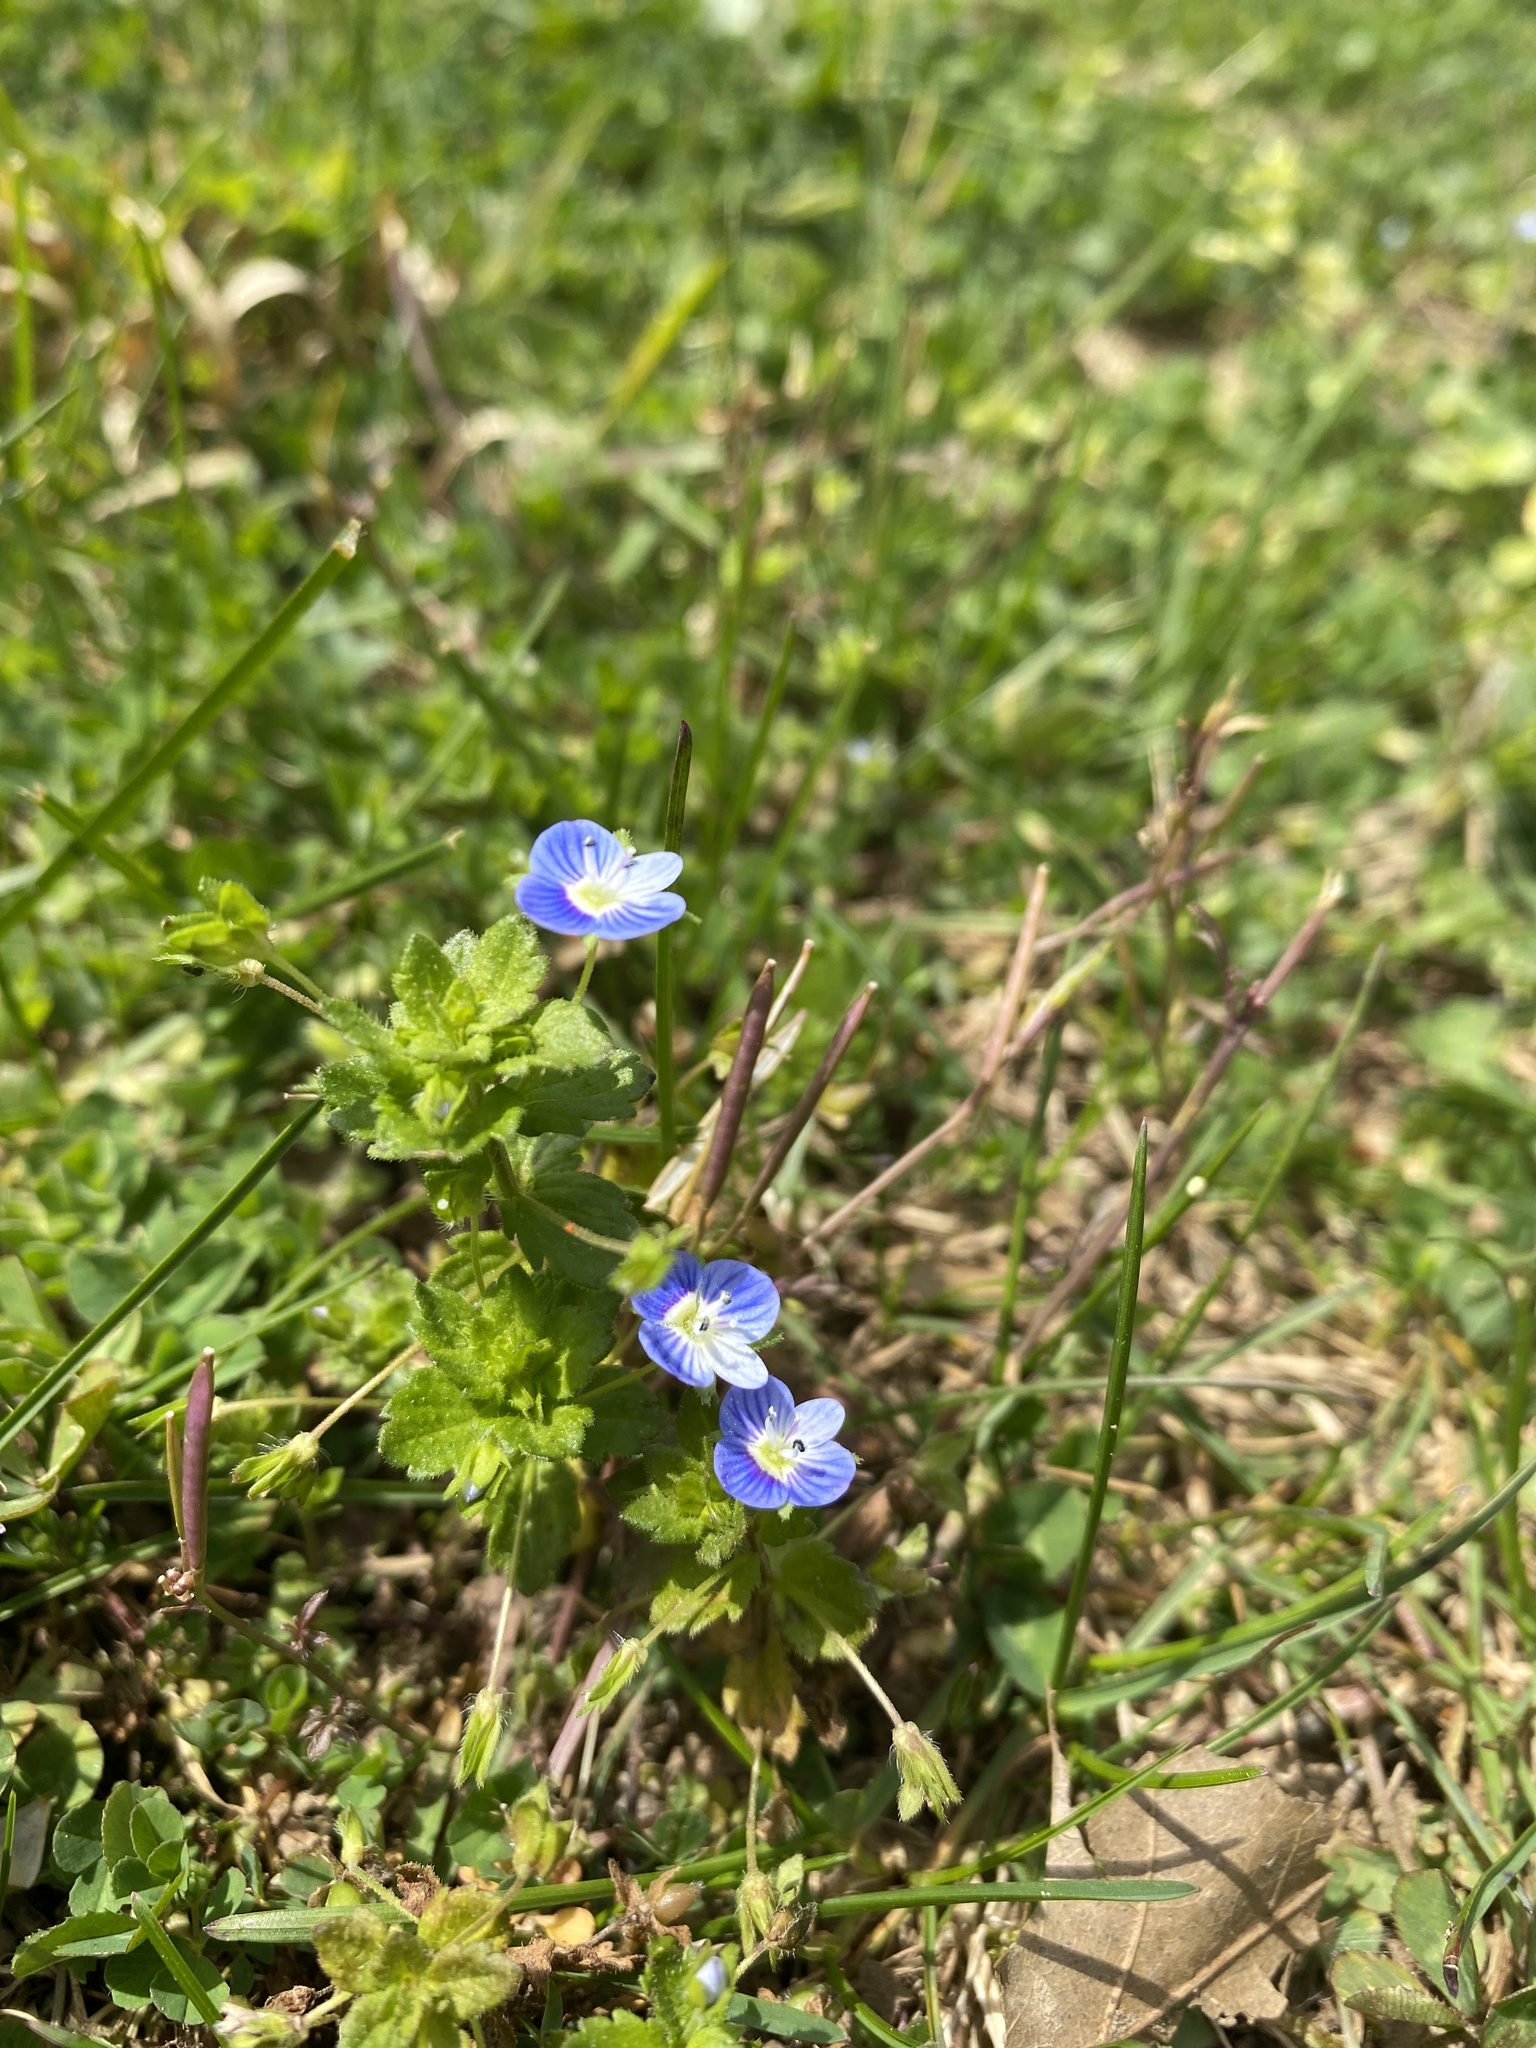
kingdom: Plantae
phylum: Tracheophyta
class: Magnoliopsida
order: Lamiales
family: Plantaginaceae
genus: Veronica
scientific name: Veronica persica
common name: Common field-speedwell
